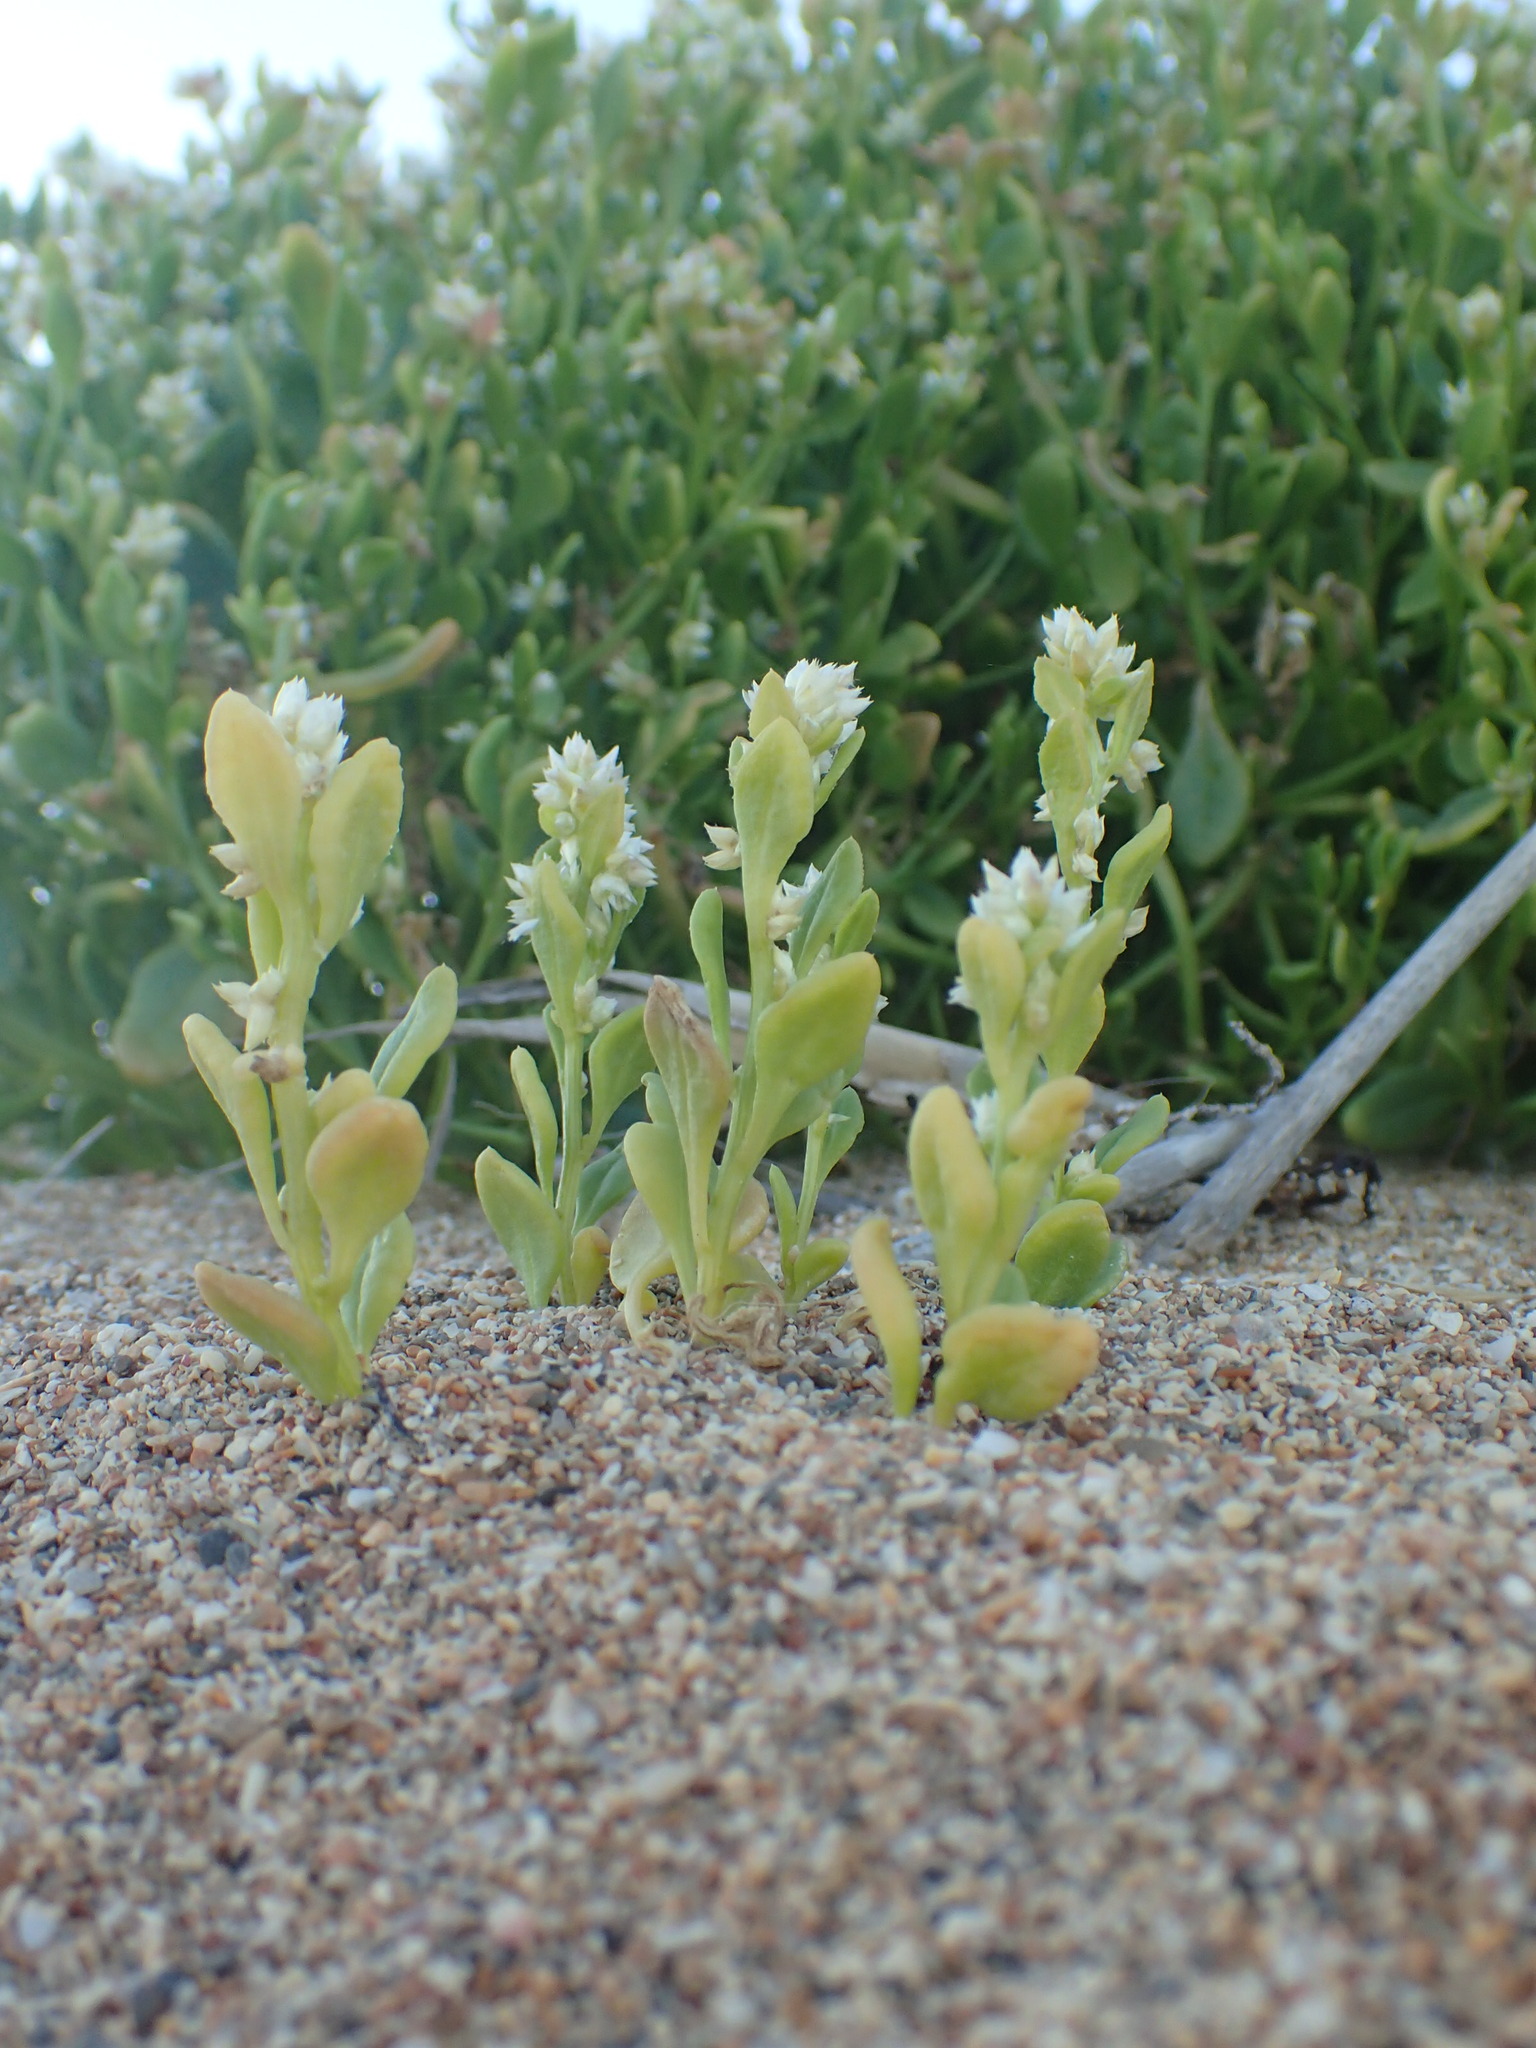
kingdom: Plantae
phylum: Tracheophyta
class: Magnoliopsida
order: Caryophyllales
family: Amaranthaceae
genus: Ptilotus
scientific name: Ptilotus villosiflorus
